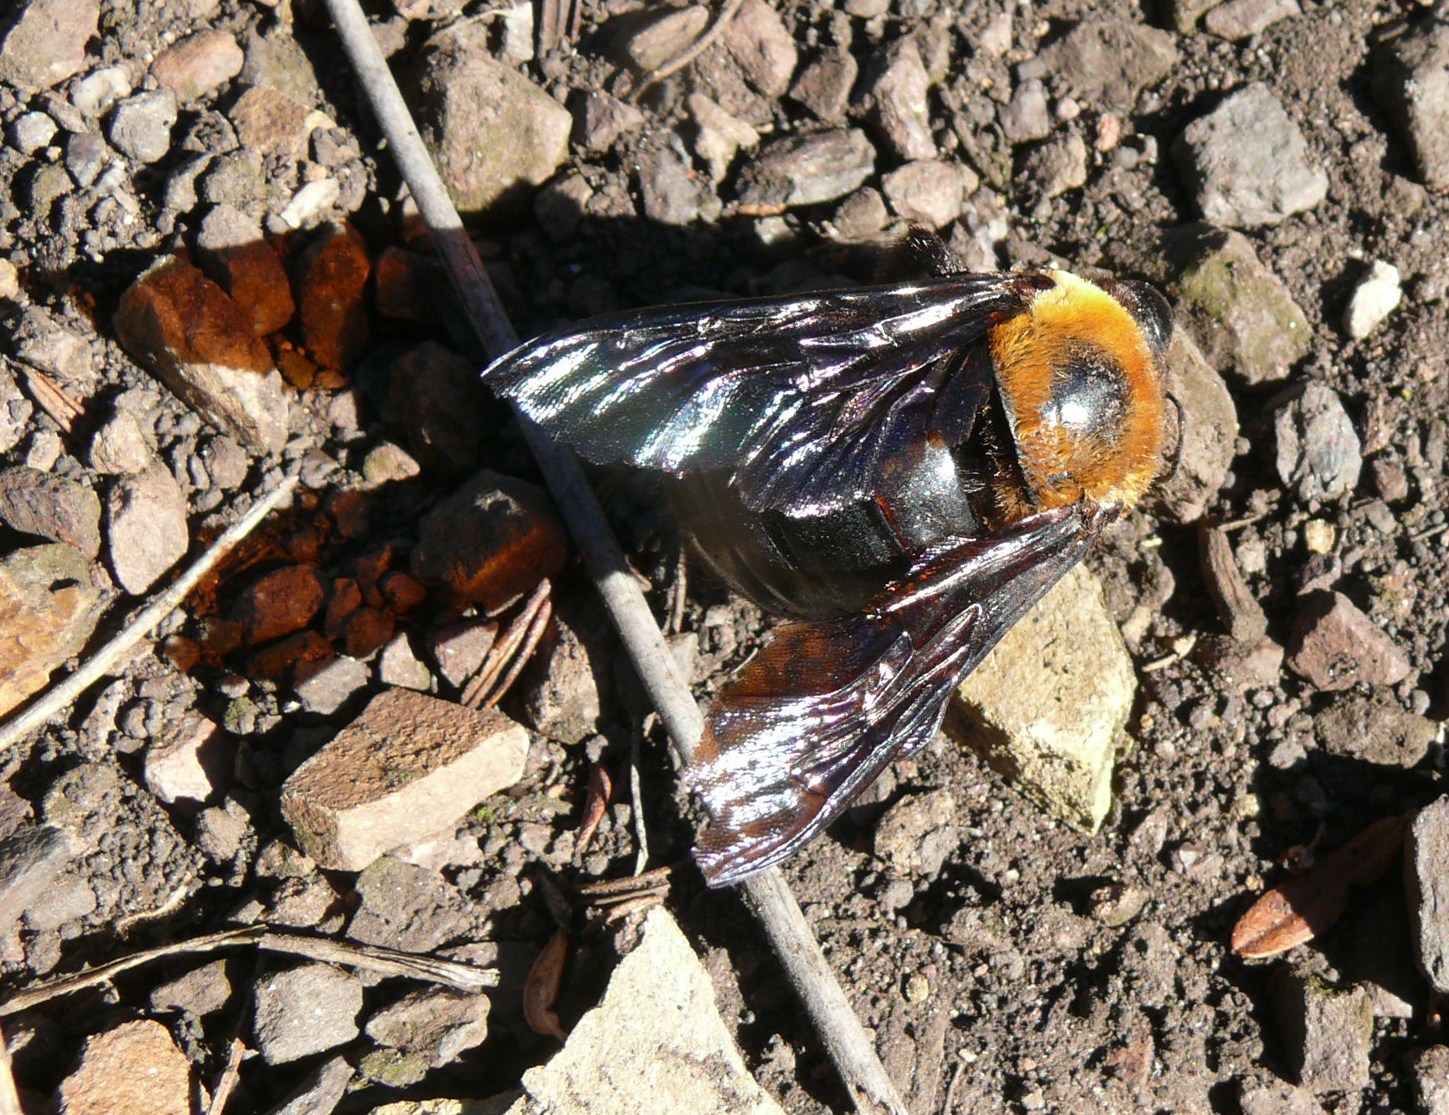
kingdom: Animalia
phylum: Arthropoda
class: Insecta
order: Hymenoptera
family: Apidae
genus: Xylocopa
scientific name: Xylocopa flavorufa
